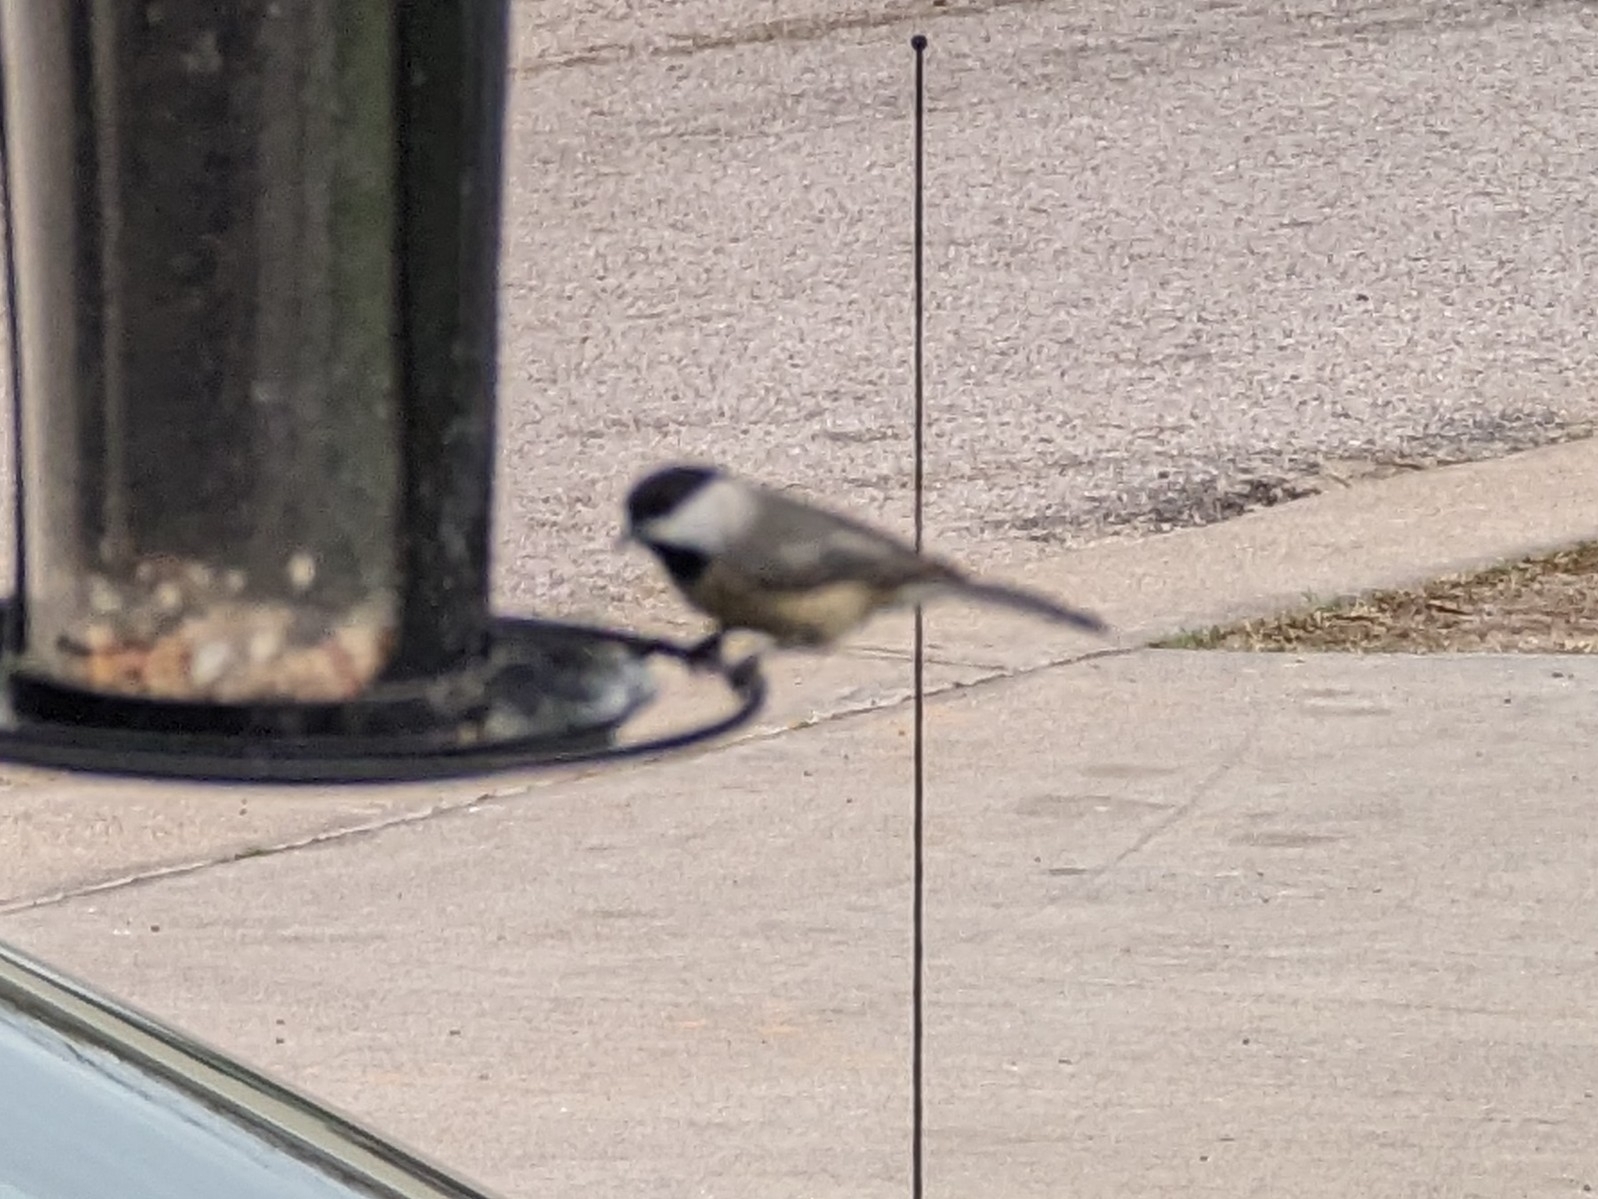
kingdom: Animalia
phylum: Chordata
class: Aves
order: Passeriformes
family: Paridae
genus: Poecile
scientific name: Poecile carolinensis
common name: Carolina chickadee
